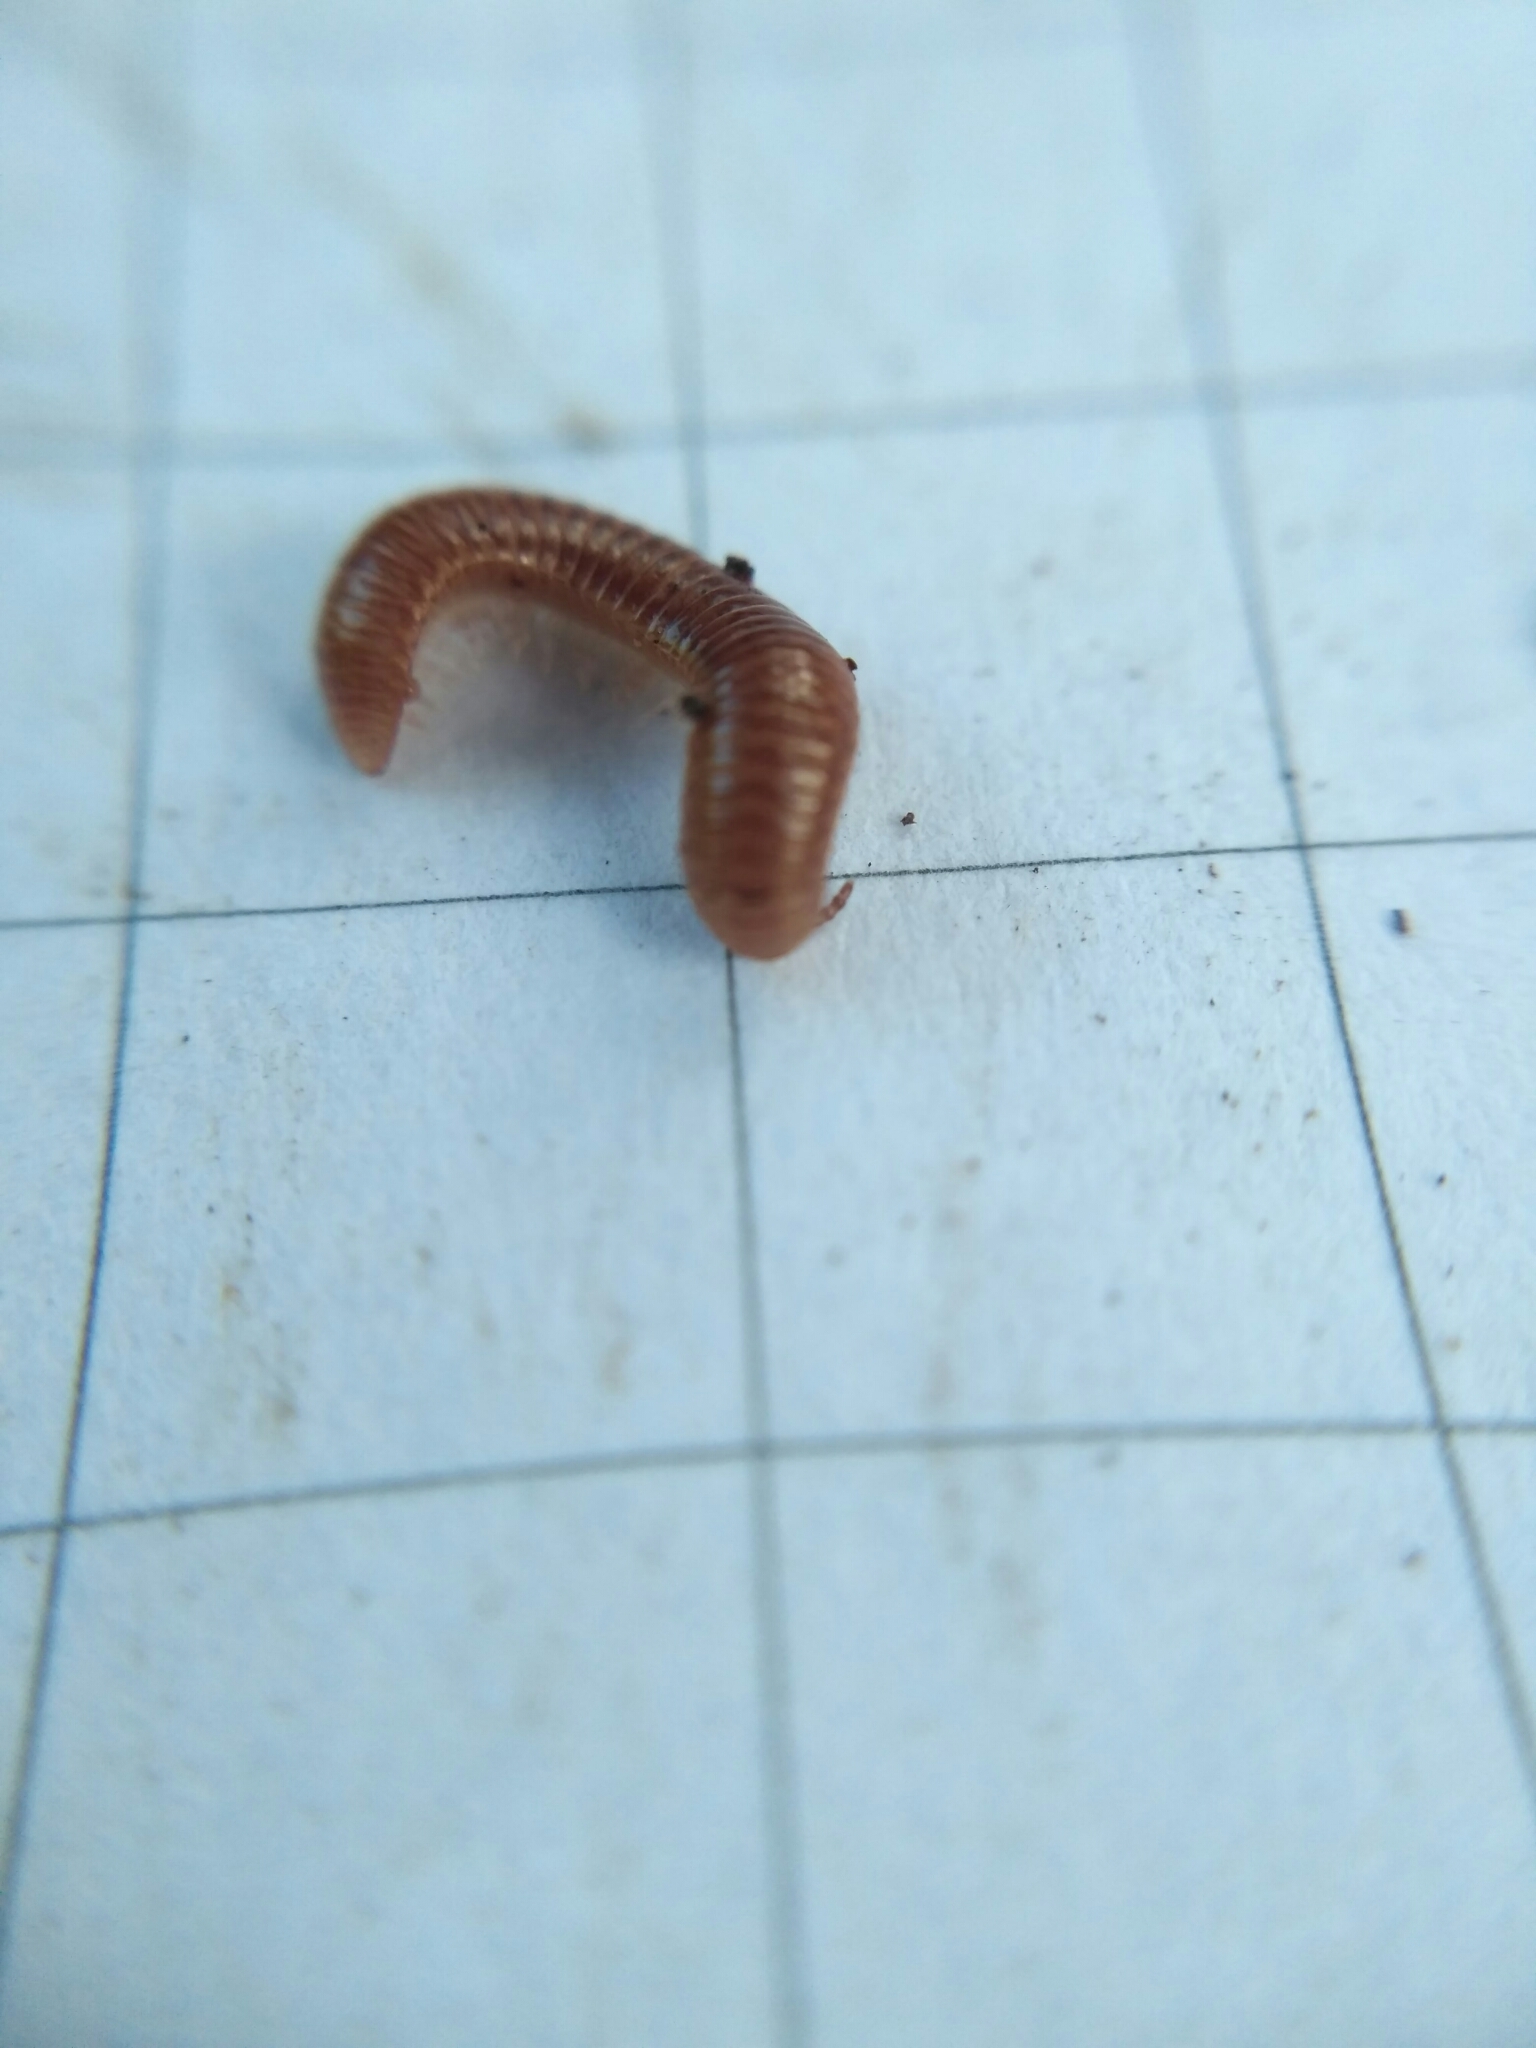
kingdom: Animalia
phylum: Arthropoda
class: Diplopoda
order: Polyzoniida
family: Polyzoniidae
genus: Polyzonium
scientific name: Polyzonium germanicum
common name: Boring millipede
